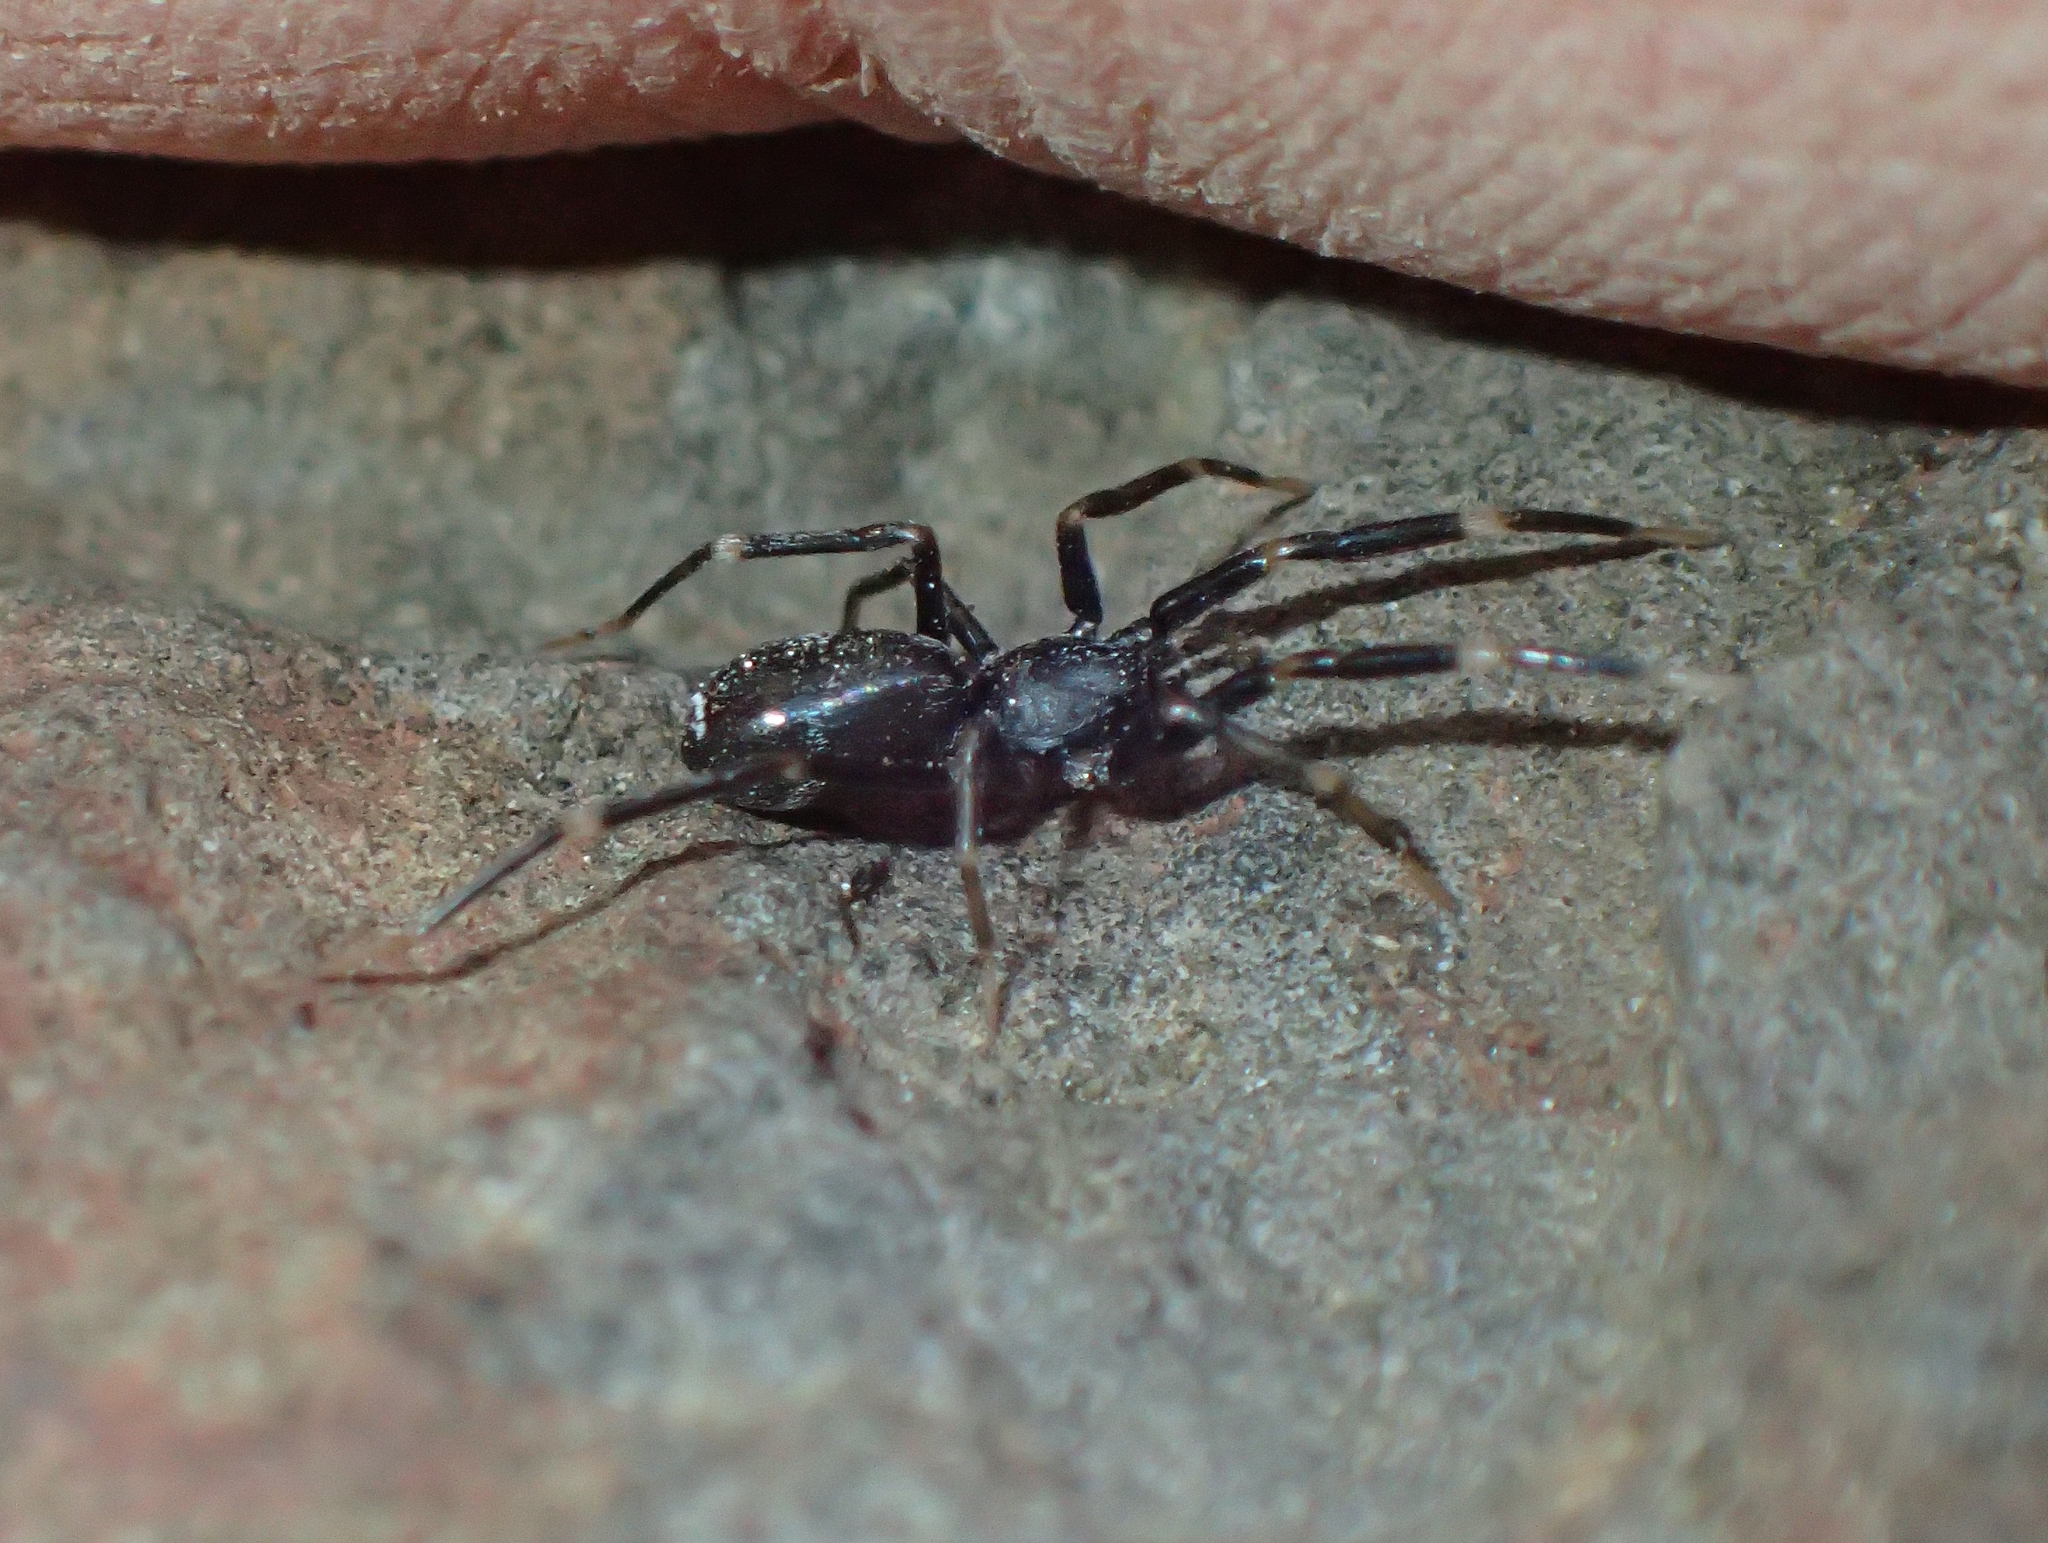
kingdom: Animalia
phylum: Arthropoda
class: Arachnida
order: Araneae
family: Phrurolithidae
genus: Liophrurillus
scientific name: Liophrurillus flavitarsis
